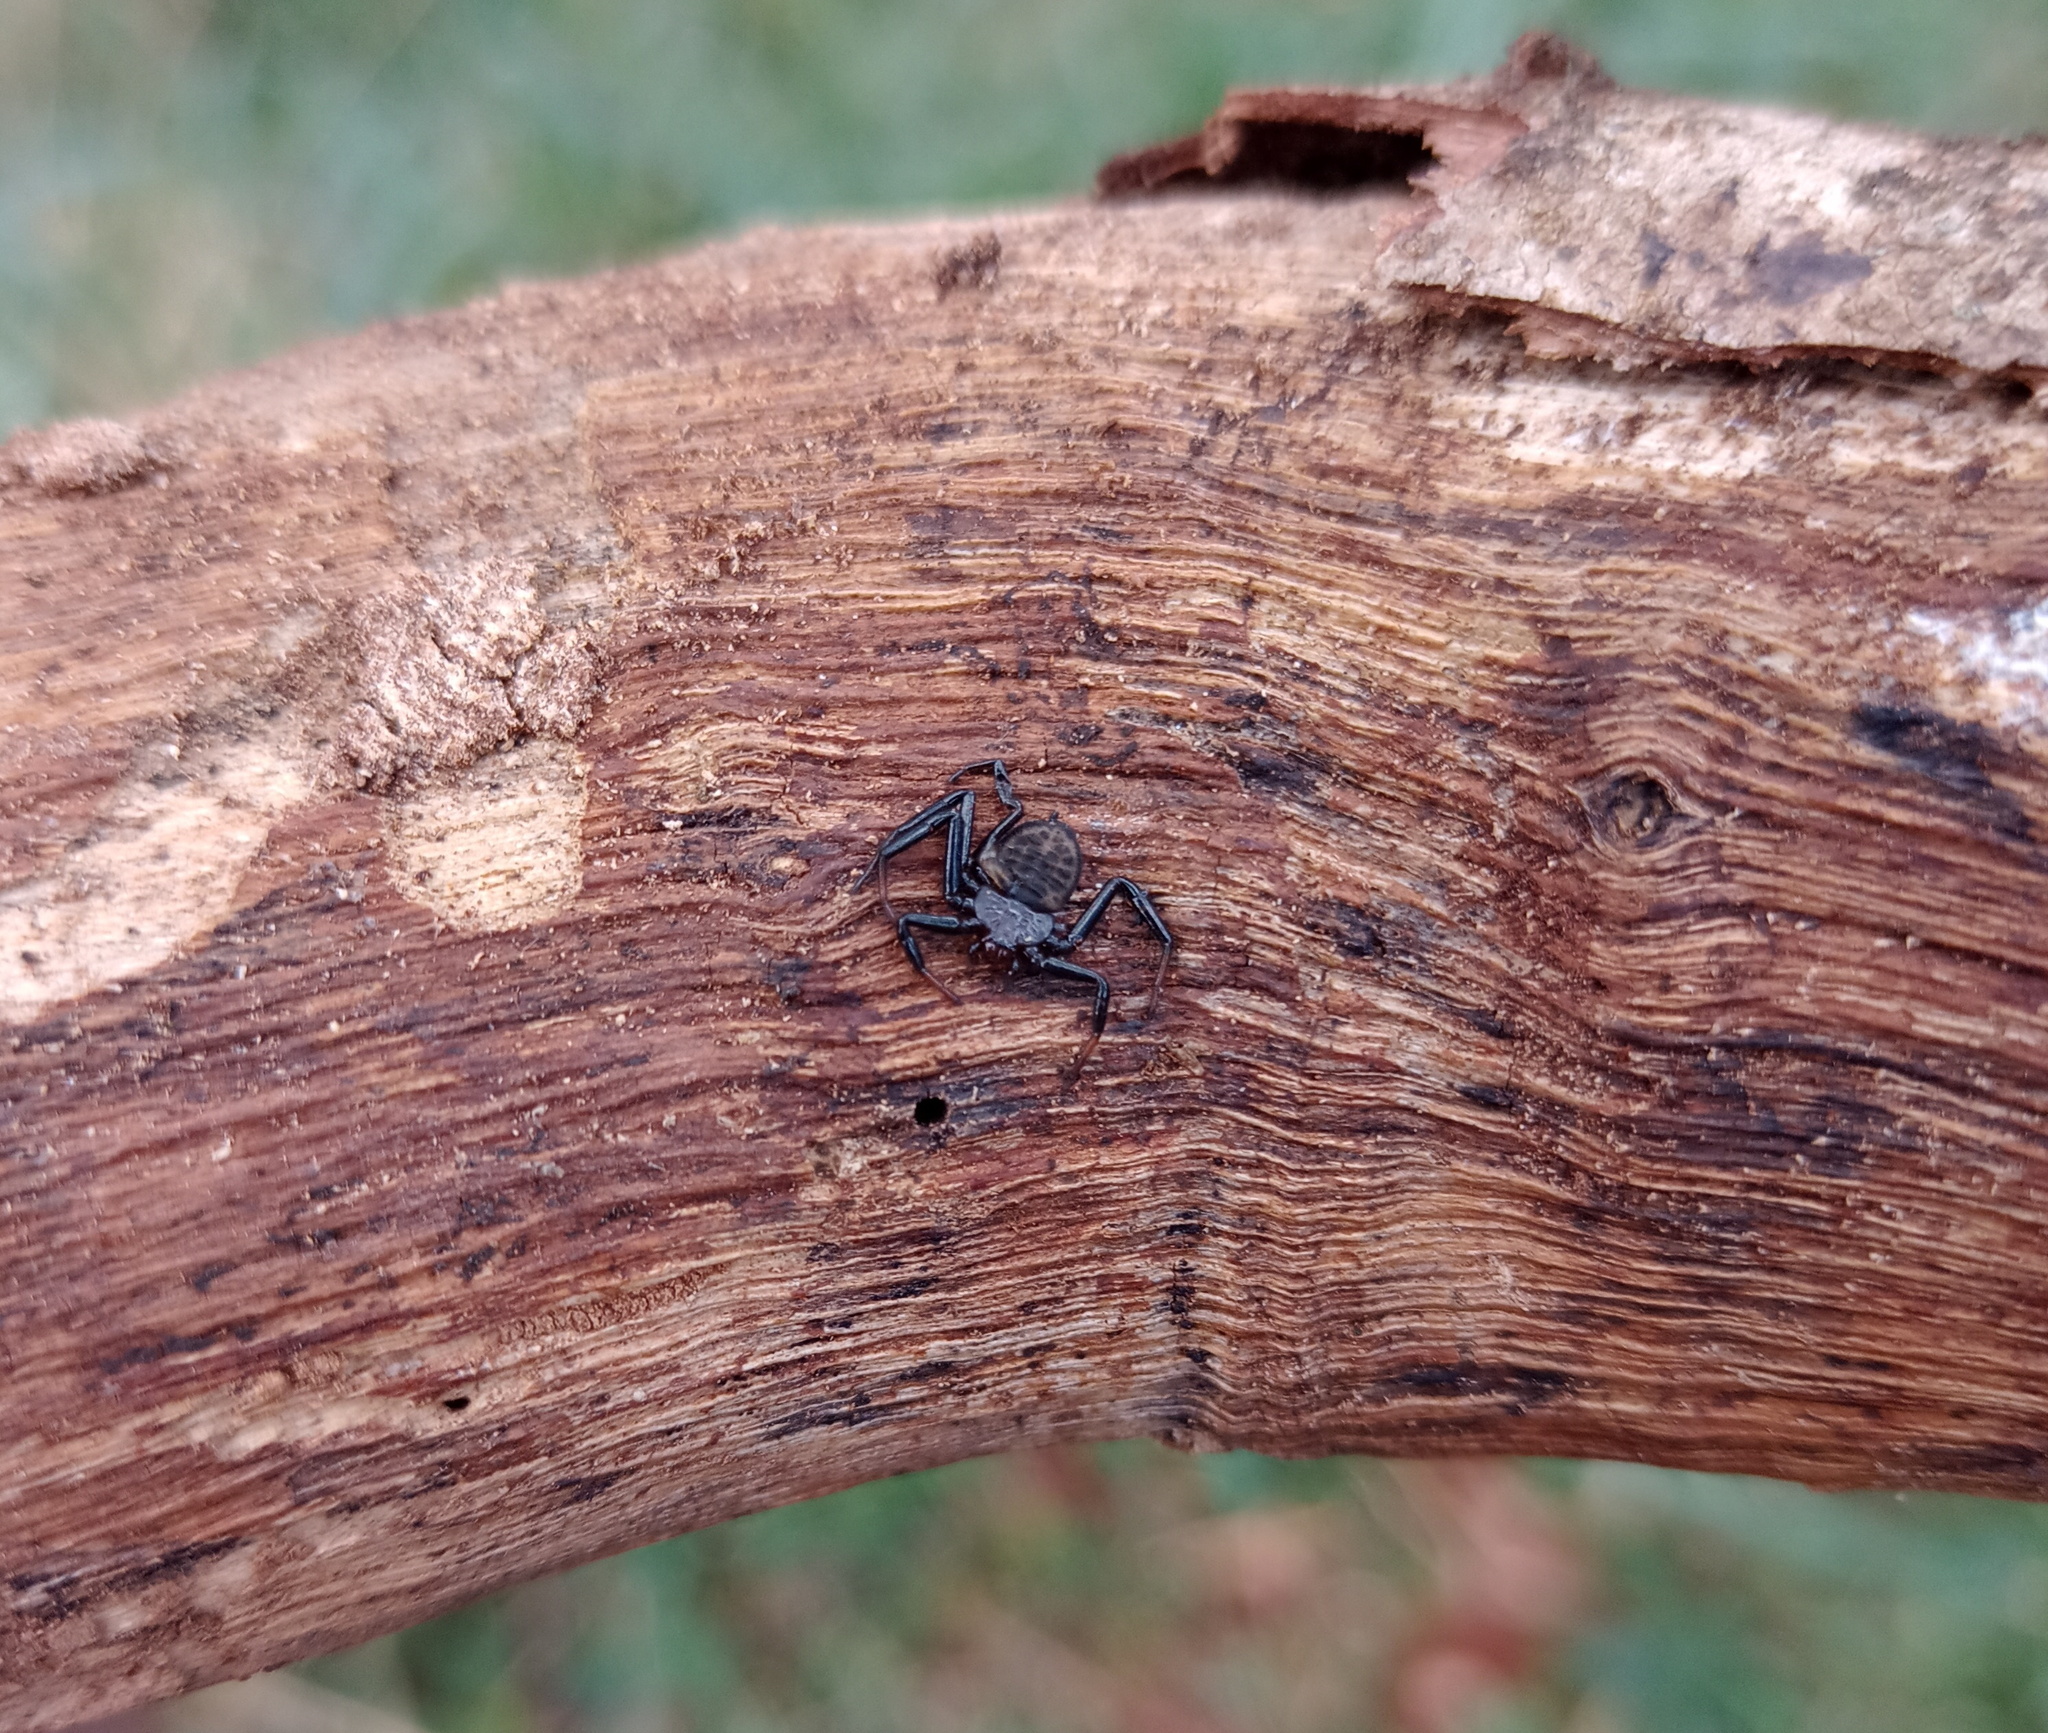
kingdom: Animalia
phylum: Arthropoda
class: Arachnida
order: Araneae
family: Trochanteriidae
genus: Vectius
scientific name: Vectius niger
